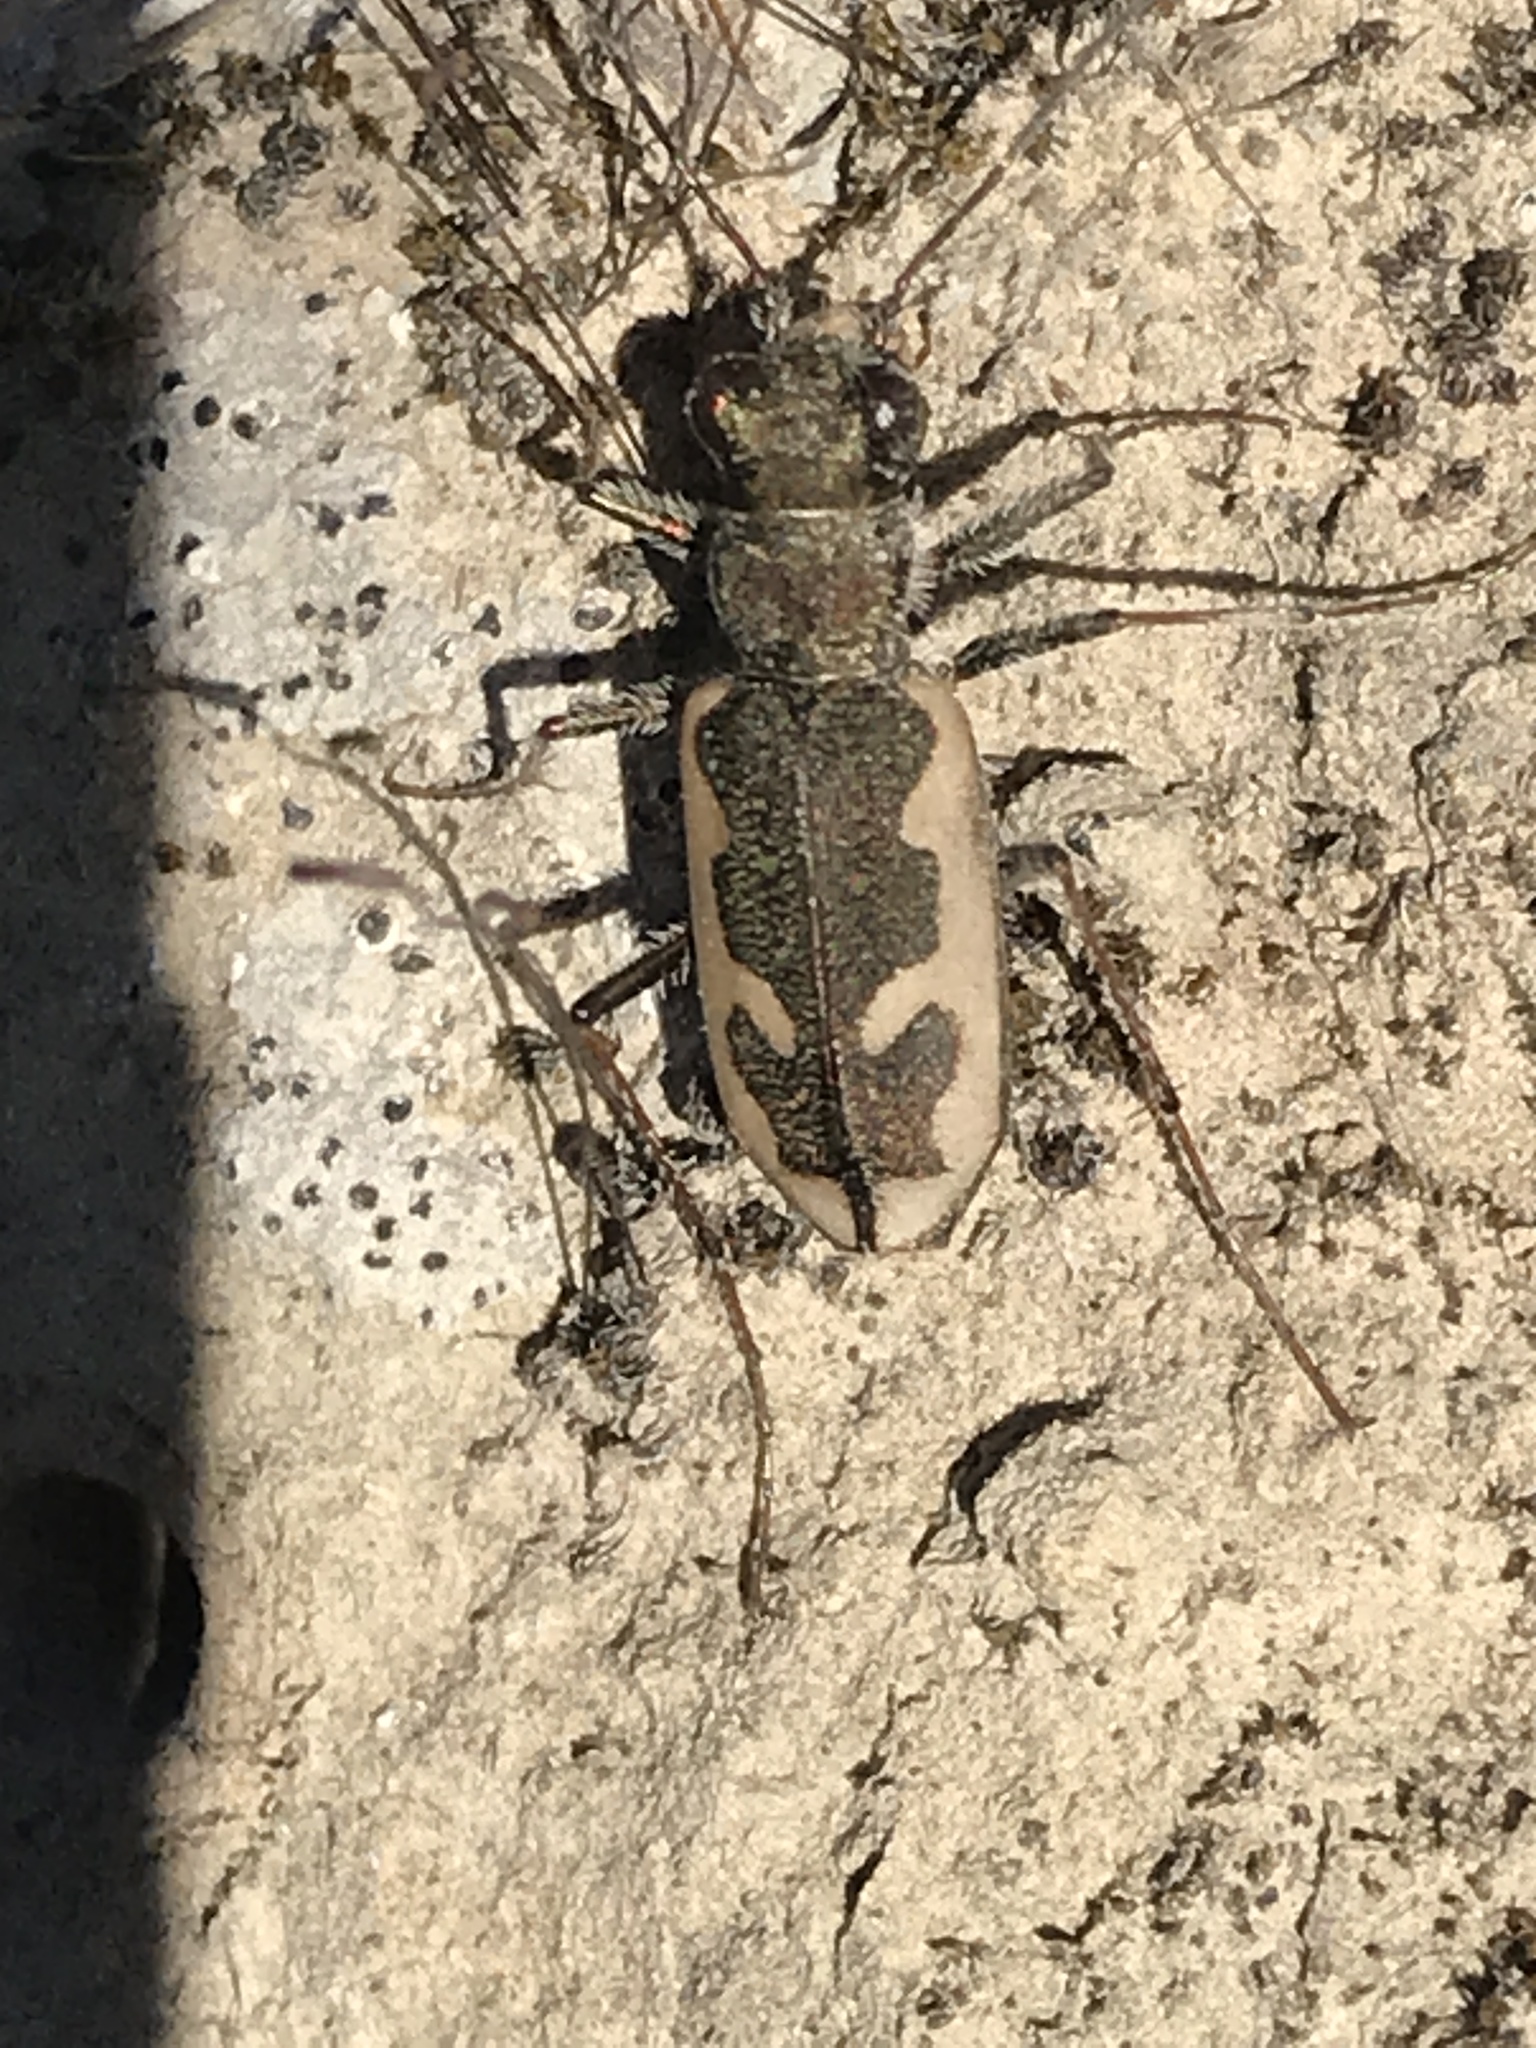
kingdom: Animalia
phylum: Arthropoda
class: Insecta
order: Coleoptera
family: Carabidae
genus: Neocicindela
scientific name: Neocicindela latecincta
